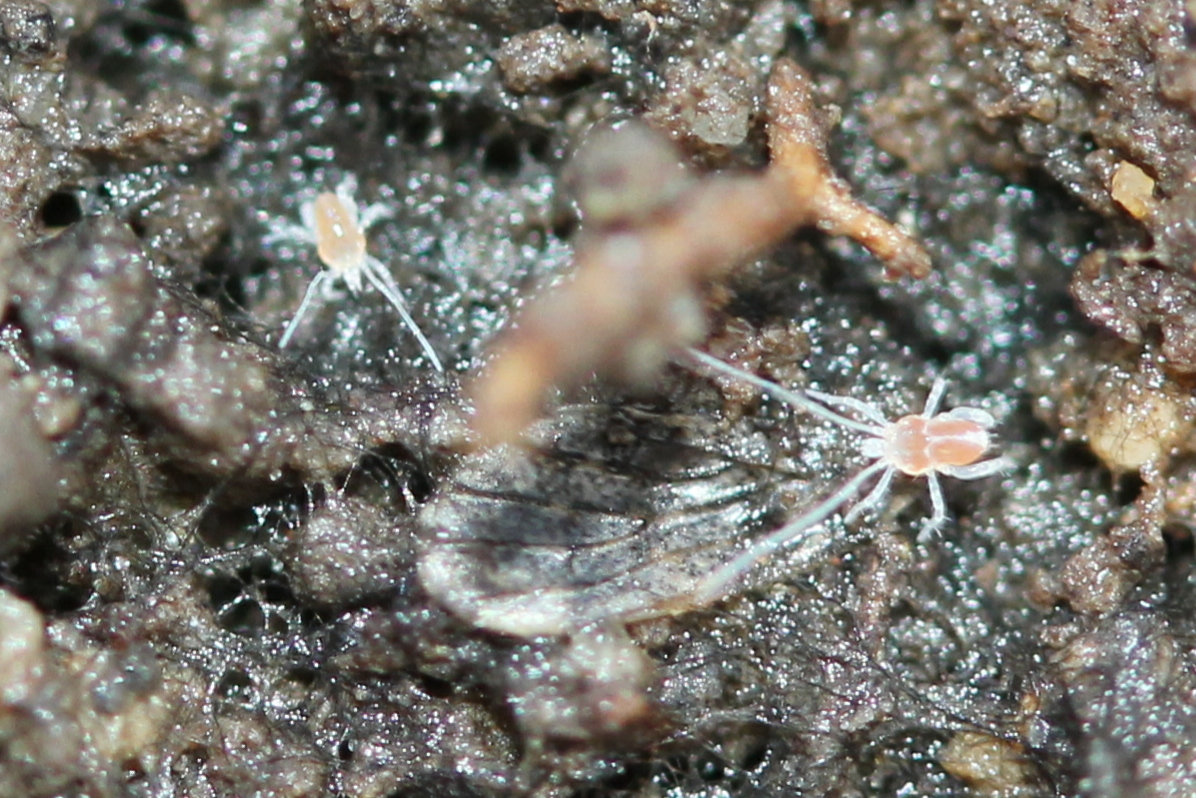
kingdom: Animalia
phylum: Arthropoda
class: Arachnida
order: Trombidiformes
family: Eupodidae
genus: Linopodes
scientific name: Linopodes
